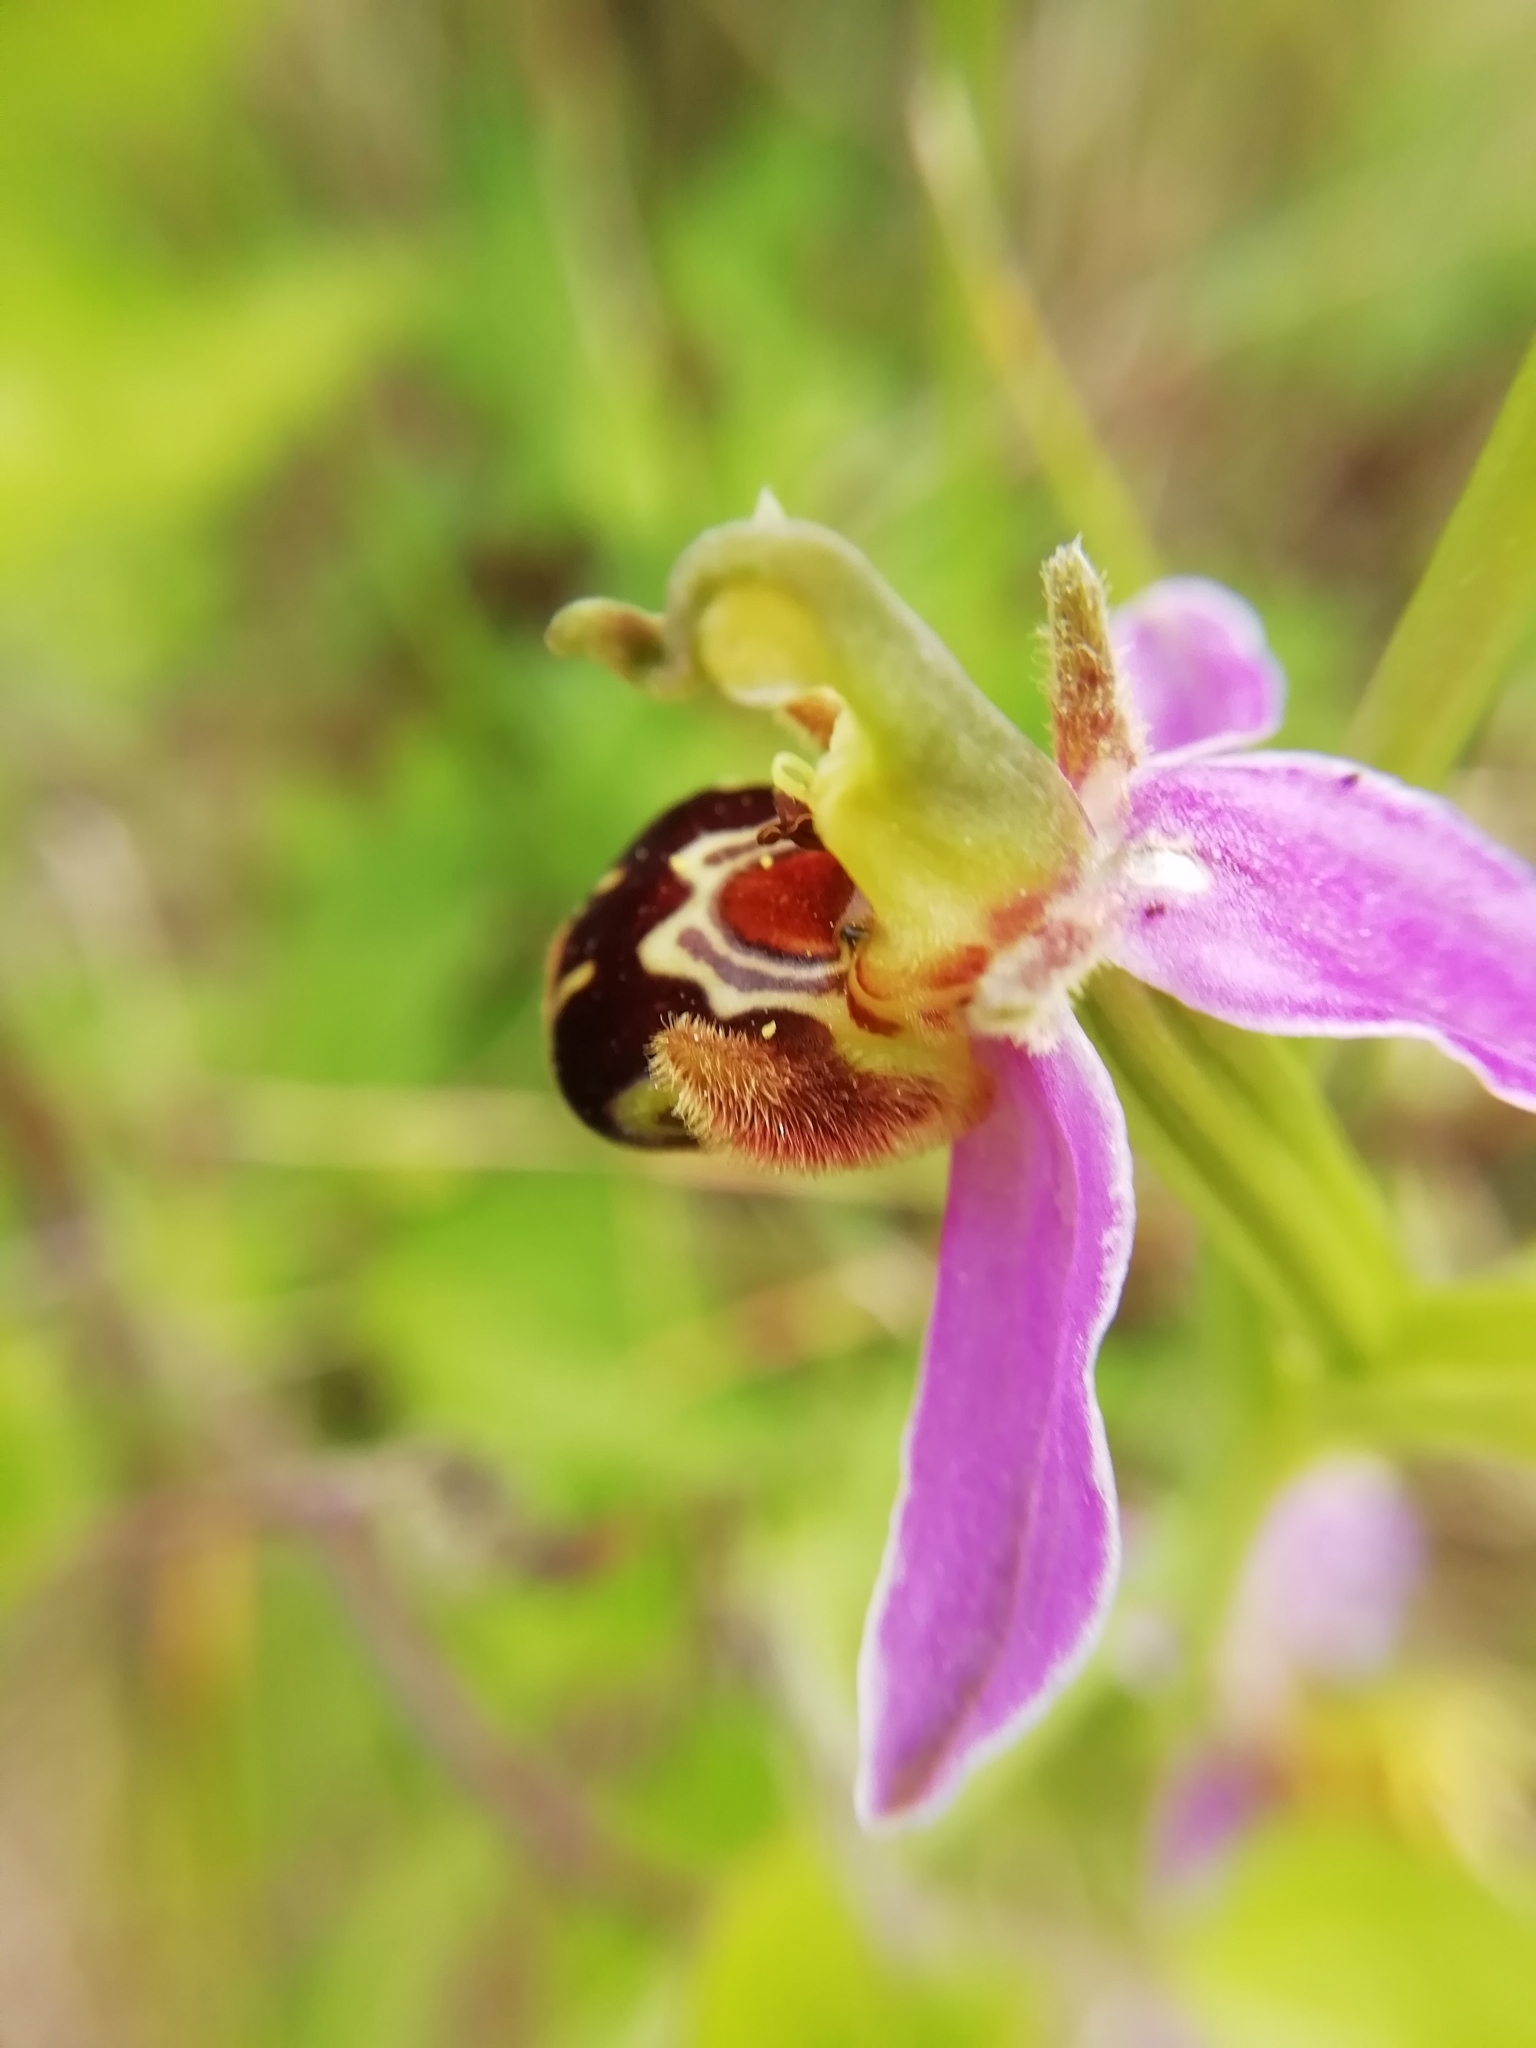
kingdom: Plantae
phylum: Tracheophyta
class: Liliopsida
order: Asparagales
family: Orchidaceae
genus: Ophrys
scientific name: Ophrys apifera
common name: Bee orchid
